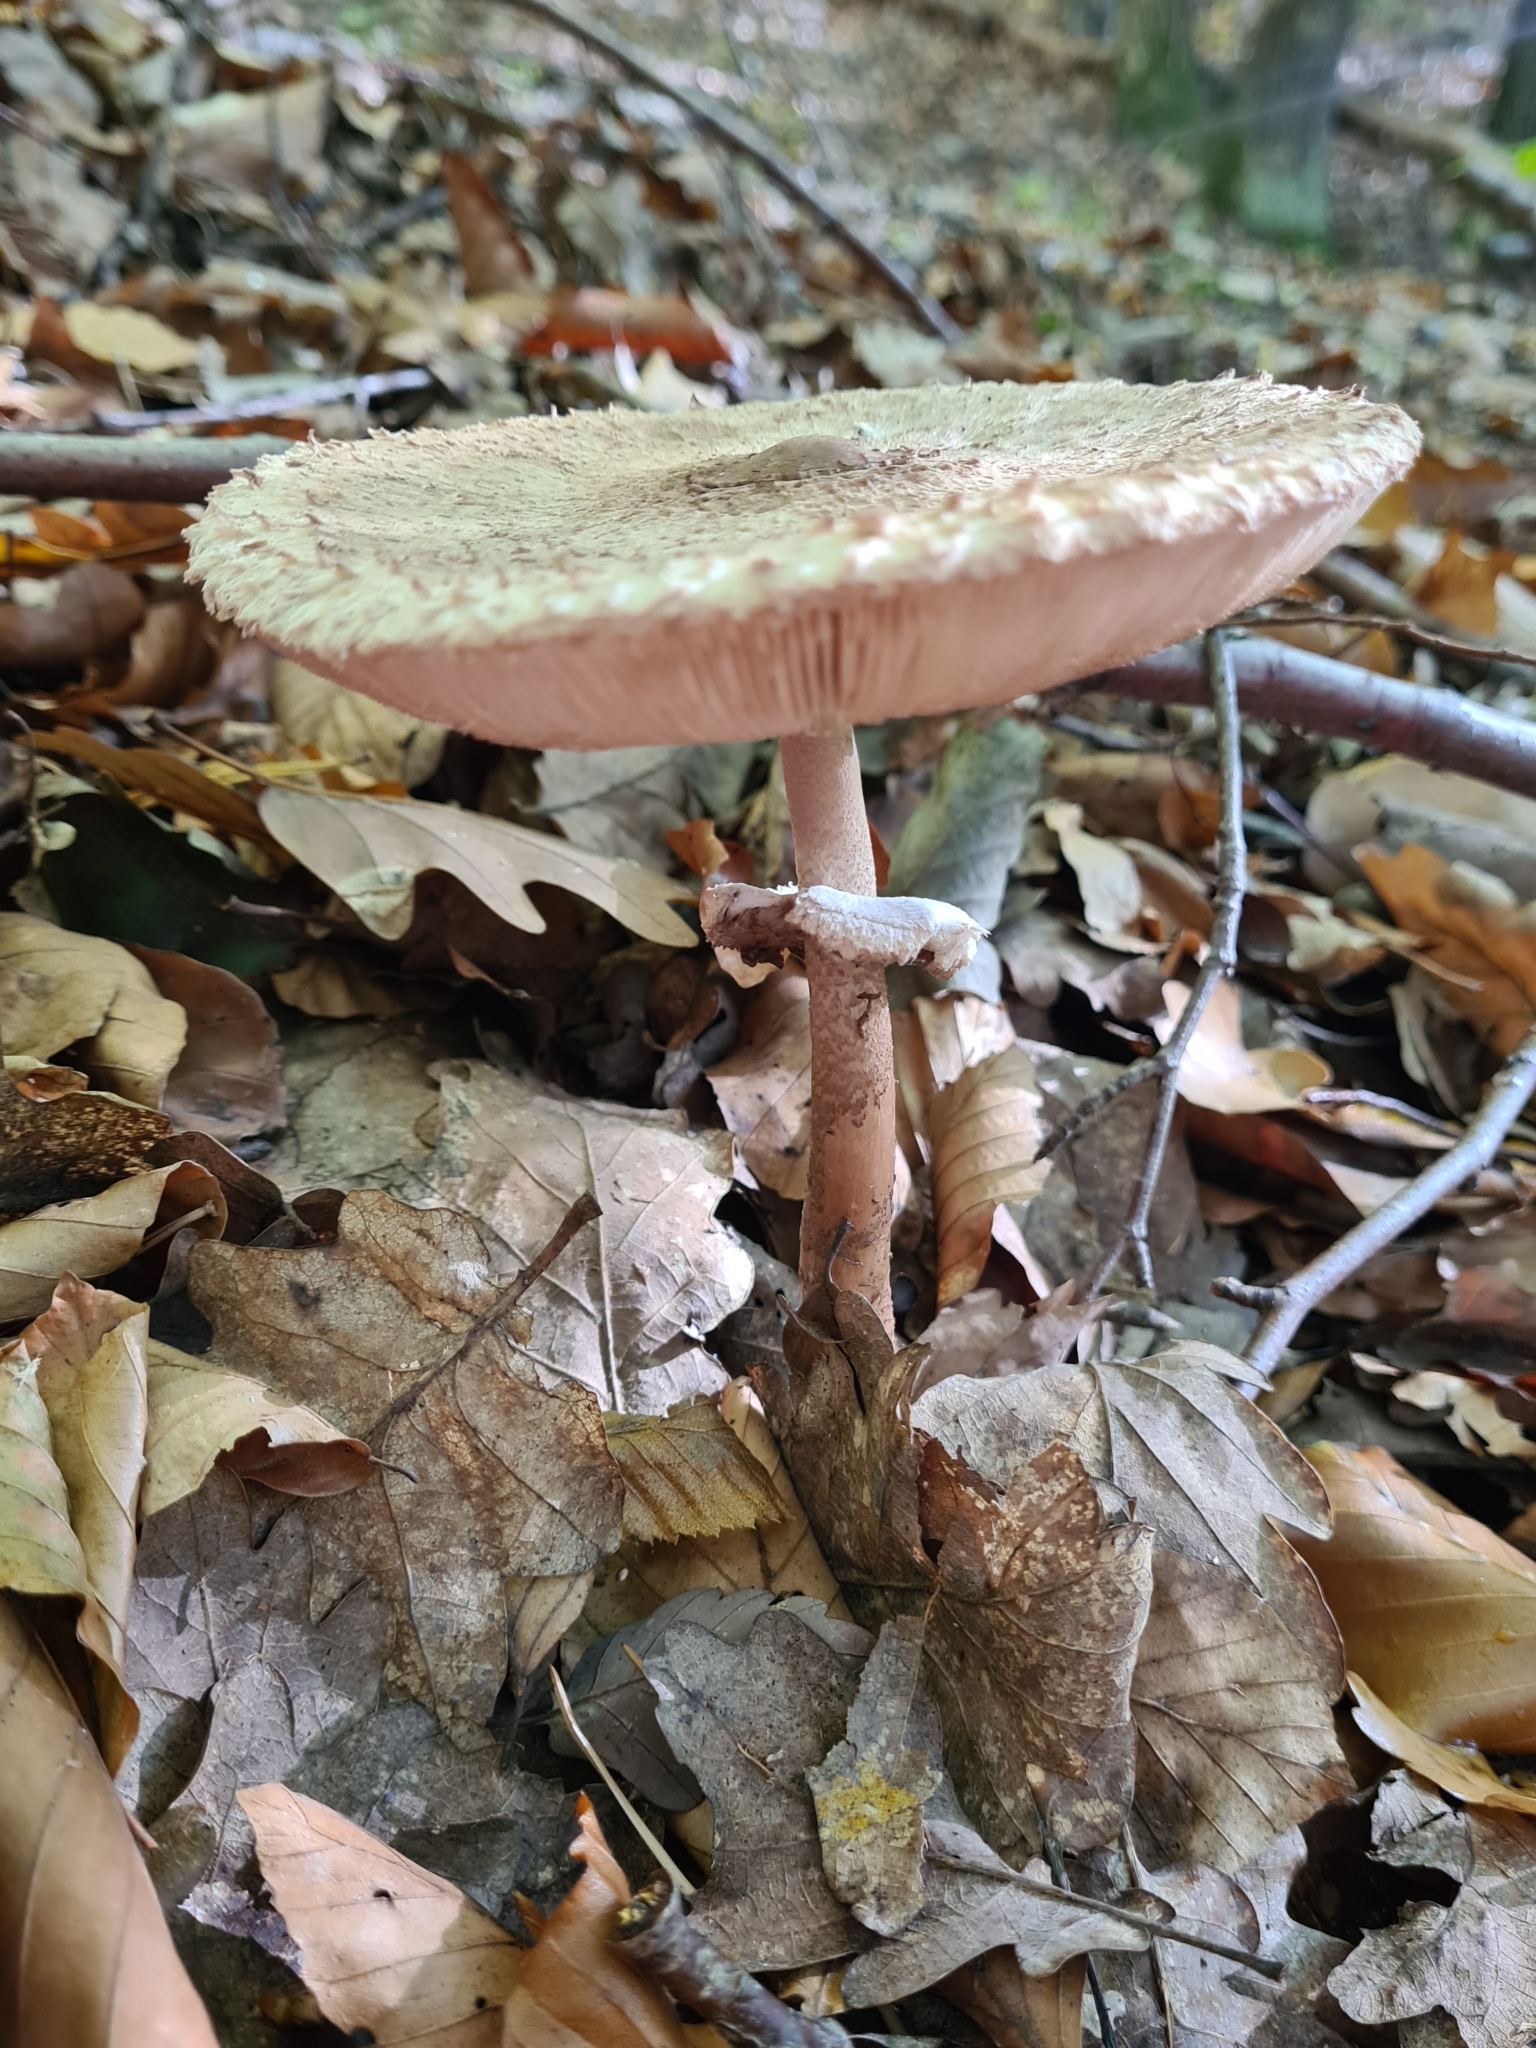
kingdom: Fungi
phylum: Basidiomycota
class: Agaricomycetes
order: Agaricales
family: Agaricaceae
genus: Macrolepiota
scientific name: Macrolepiota procera
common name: Parasol
